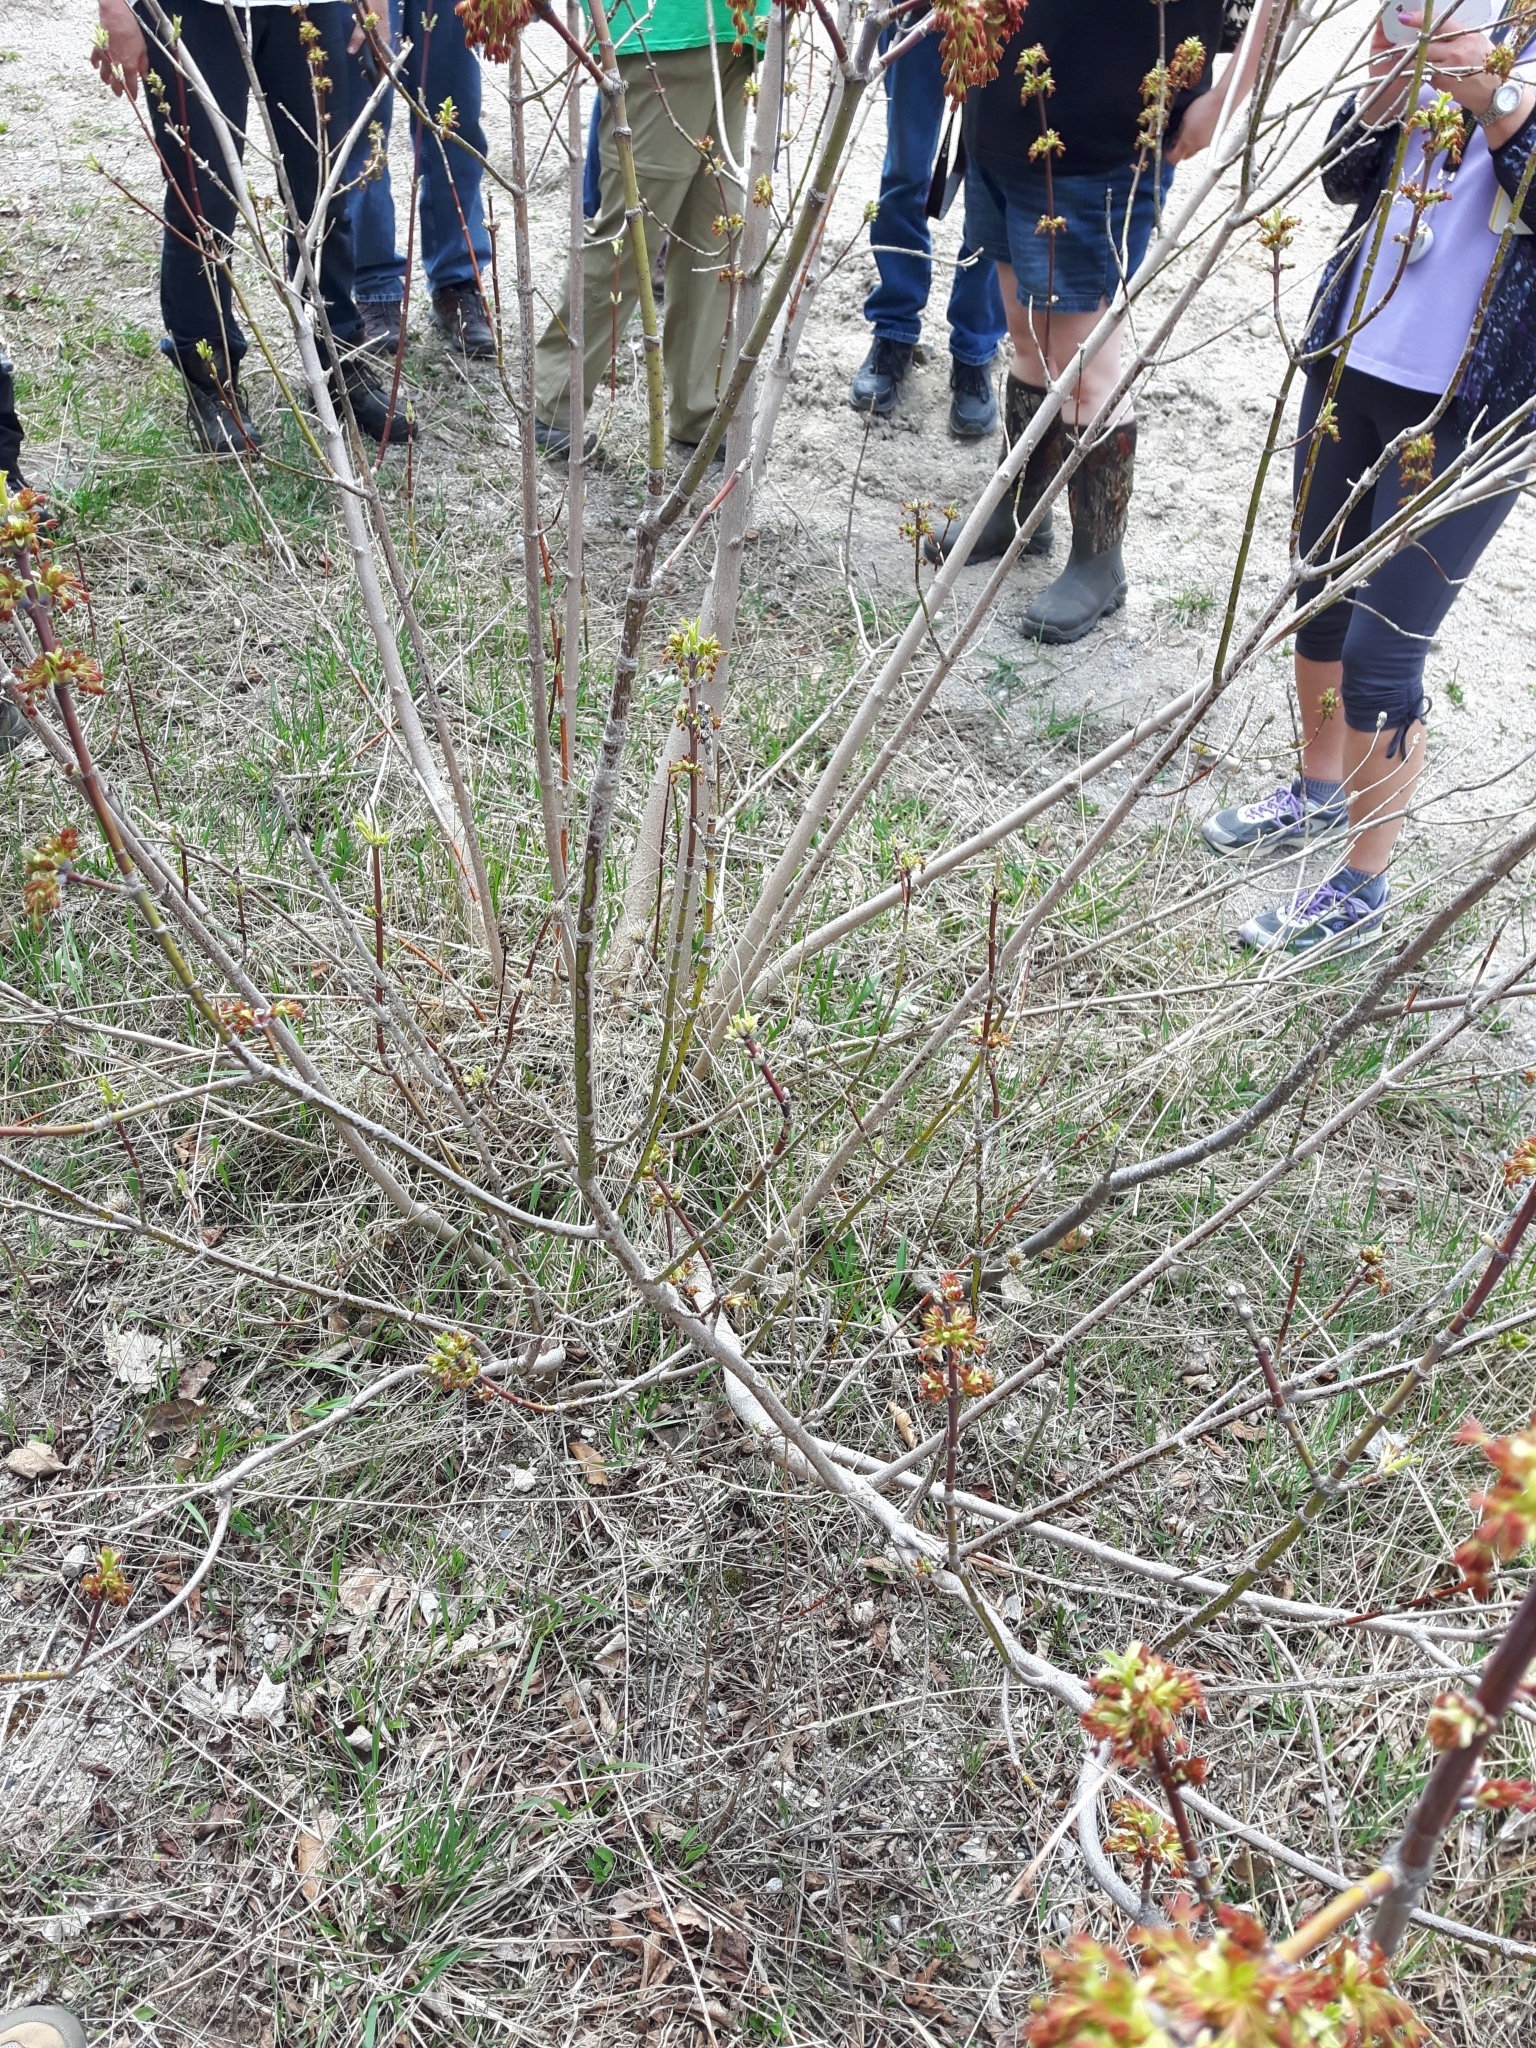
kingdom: Plantae
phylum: Tracheophyta
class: Magnoliopsida
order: Sapindales
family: Sapindaceae
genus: Acer
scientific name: Acer negundo
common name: Ashleaf maple
